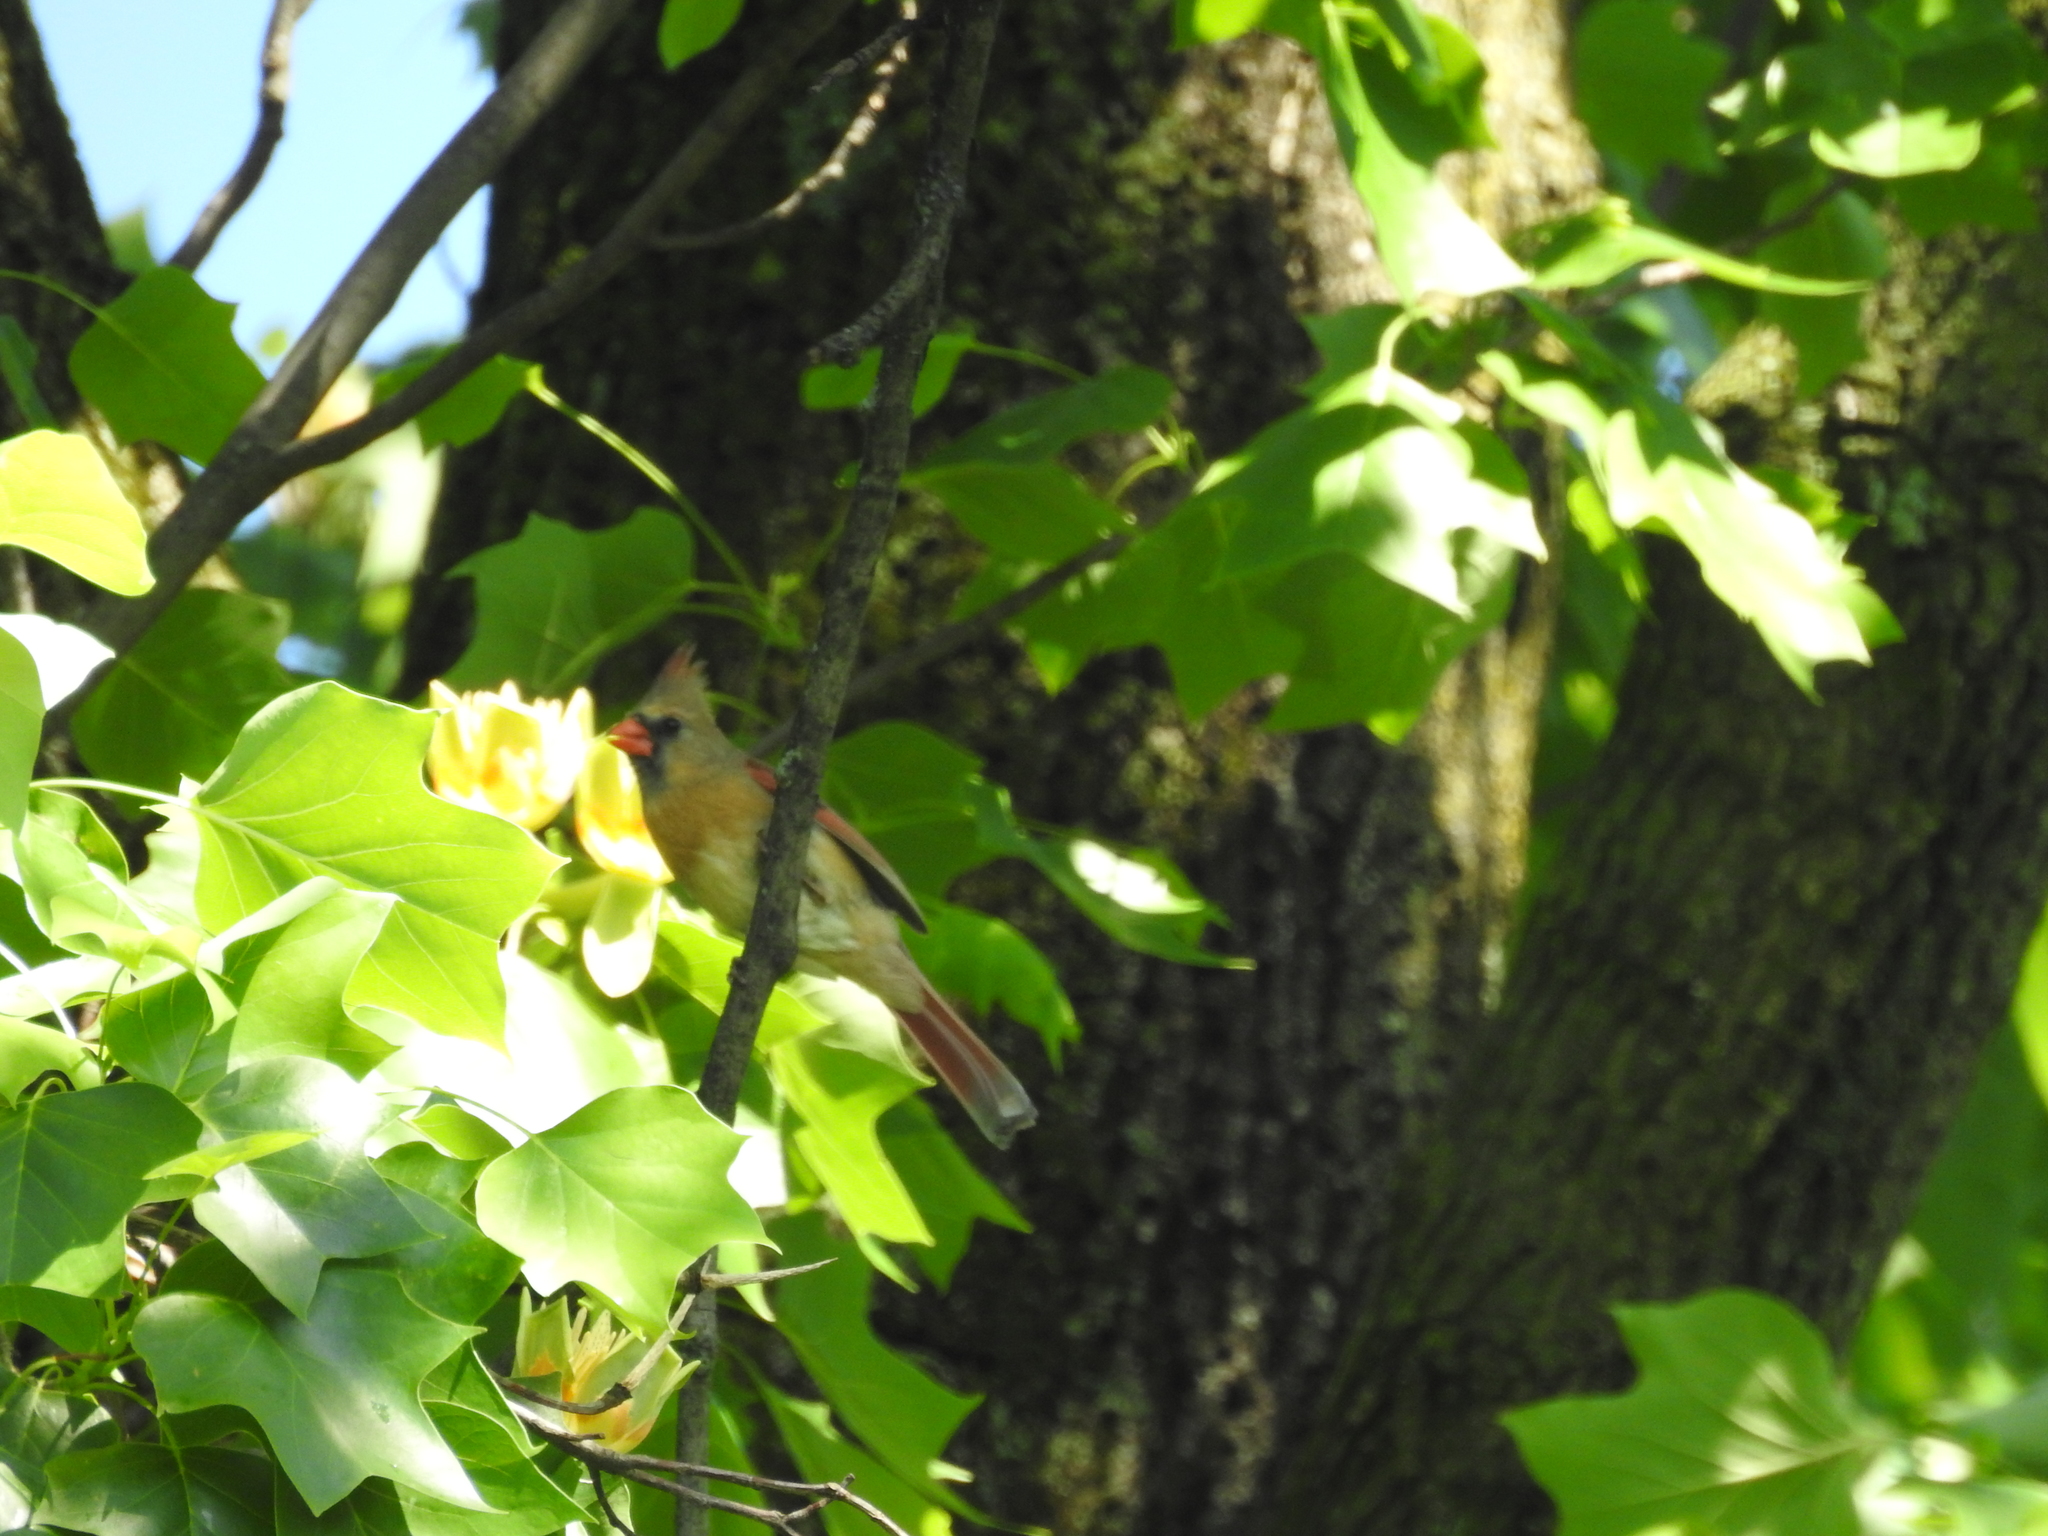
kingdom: Animalia
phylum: Chordata
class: Aves
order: Passeriformes
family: Cardinalidae
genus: Cardinalis
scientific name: Cardinalis cardinalis
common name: Northern cardinal
